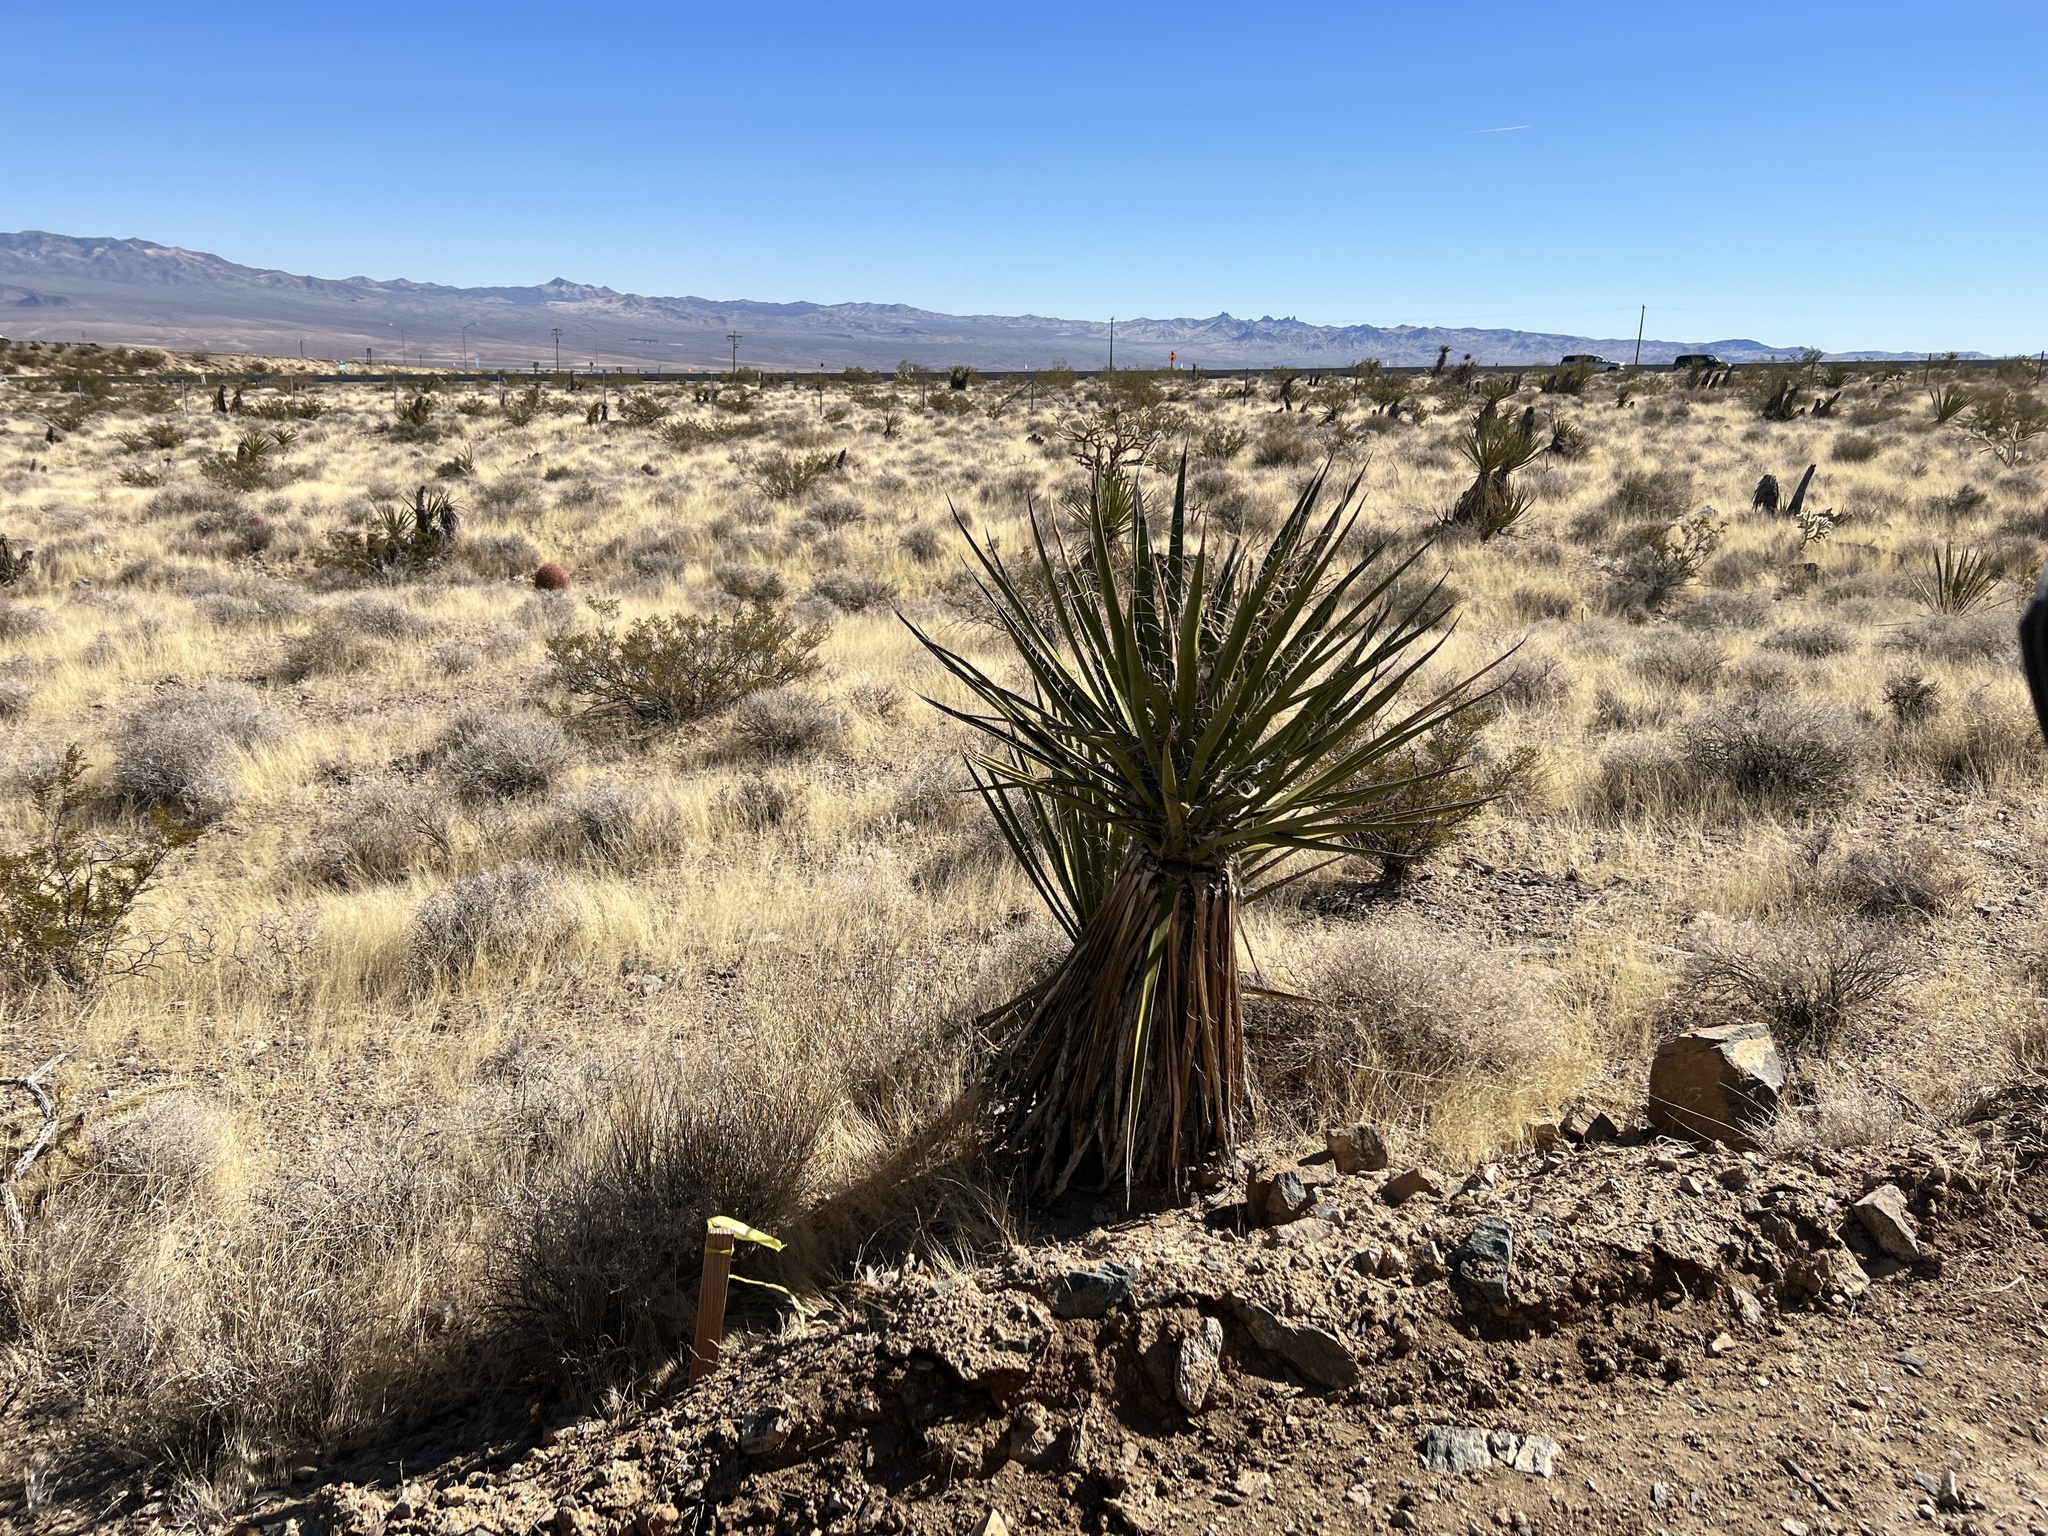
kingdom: Plantae
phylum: Tracheophyta
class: Liliopsida
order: Asparagales
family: Asparagaceae
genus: Yucca
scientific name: Yucca schidigera
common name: Mojave yucca
